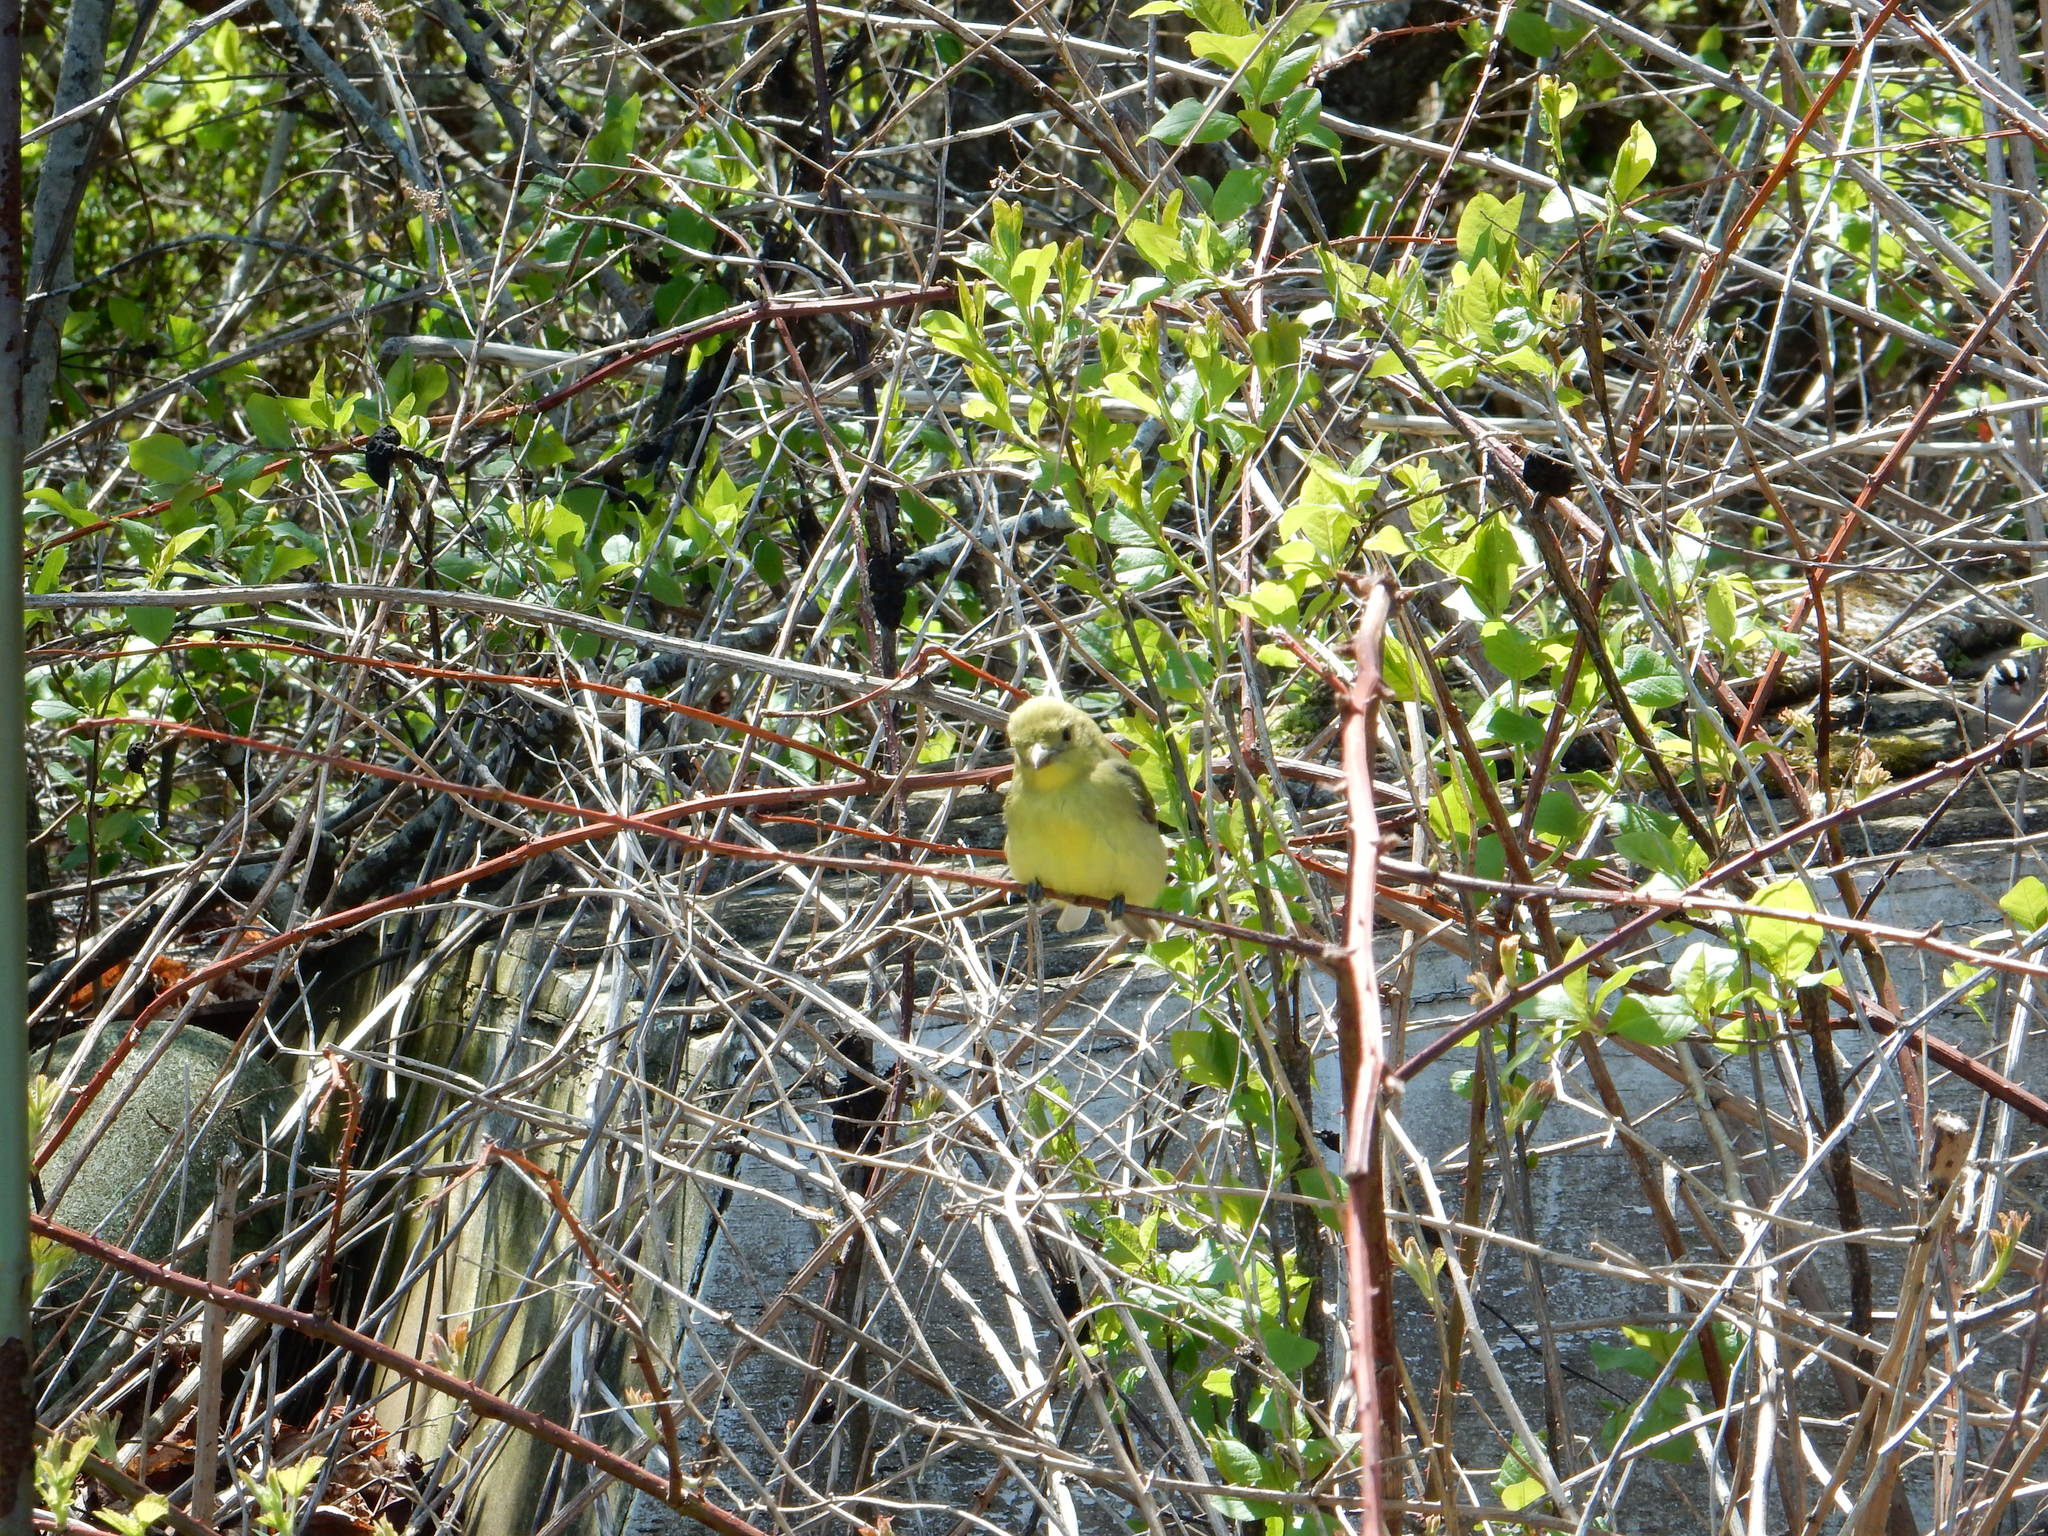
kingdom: Animalia
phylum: Chordata
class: Aves
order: Passeriformes
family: Cardinalidae
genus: Piranga
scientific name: Piranga olivacea
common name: Scarlet tanager
